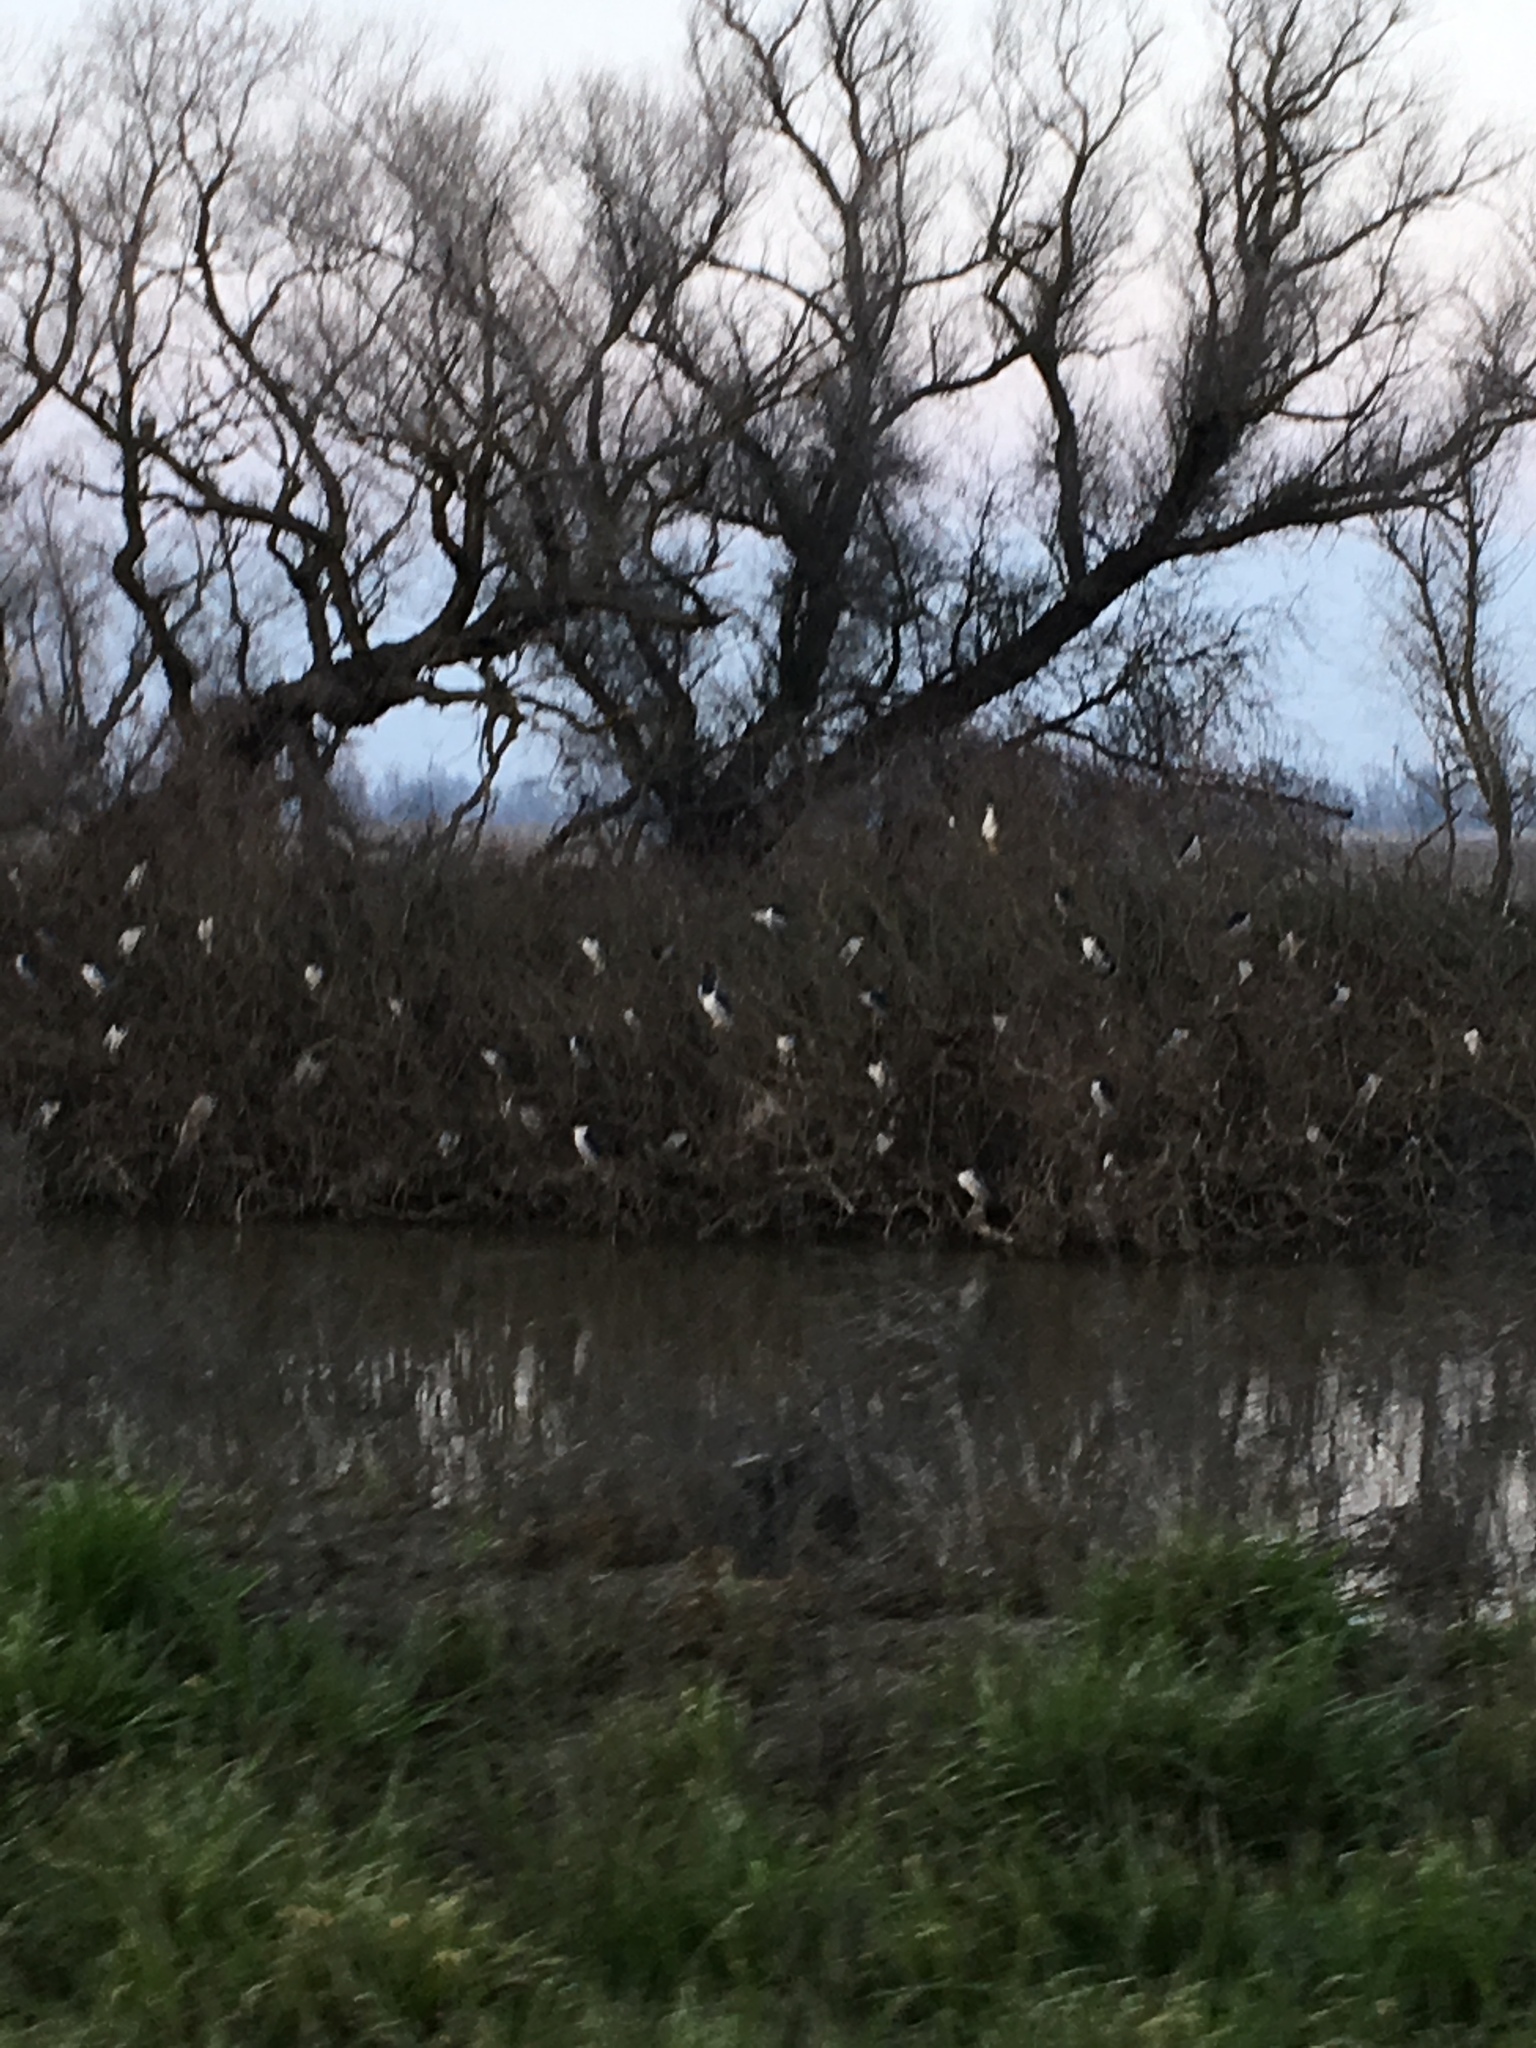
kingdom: Animalia
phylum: Chordata
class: Aves
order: Pelecaniformes
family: Ardeidae
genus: Nycticorax
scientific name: Nycticorax nycticorax
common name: Black-crowned night heron
